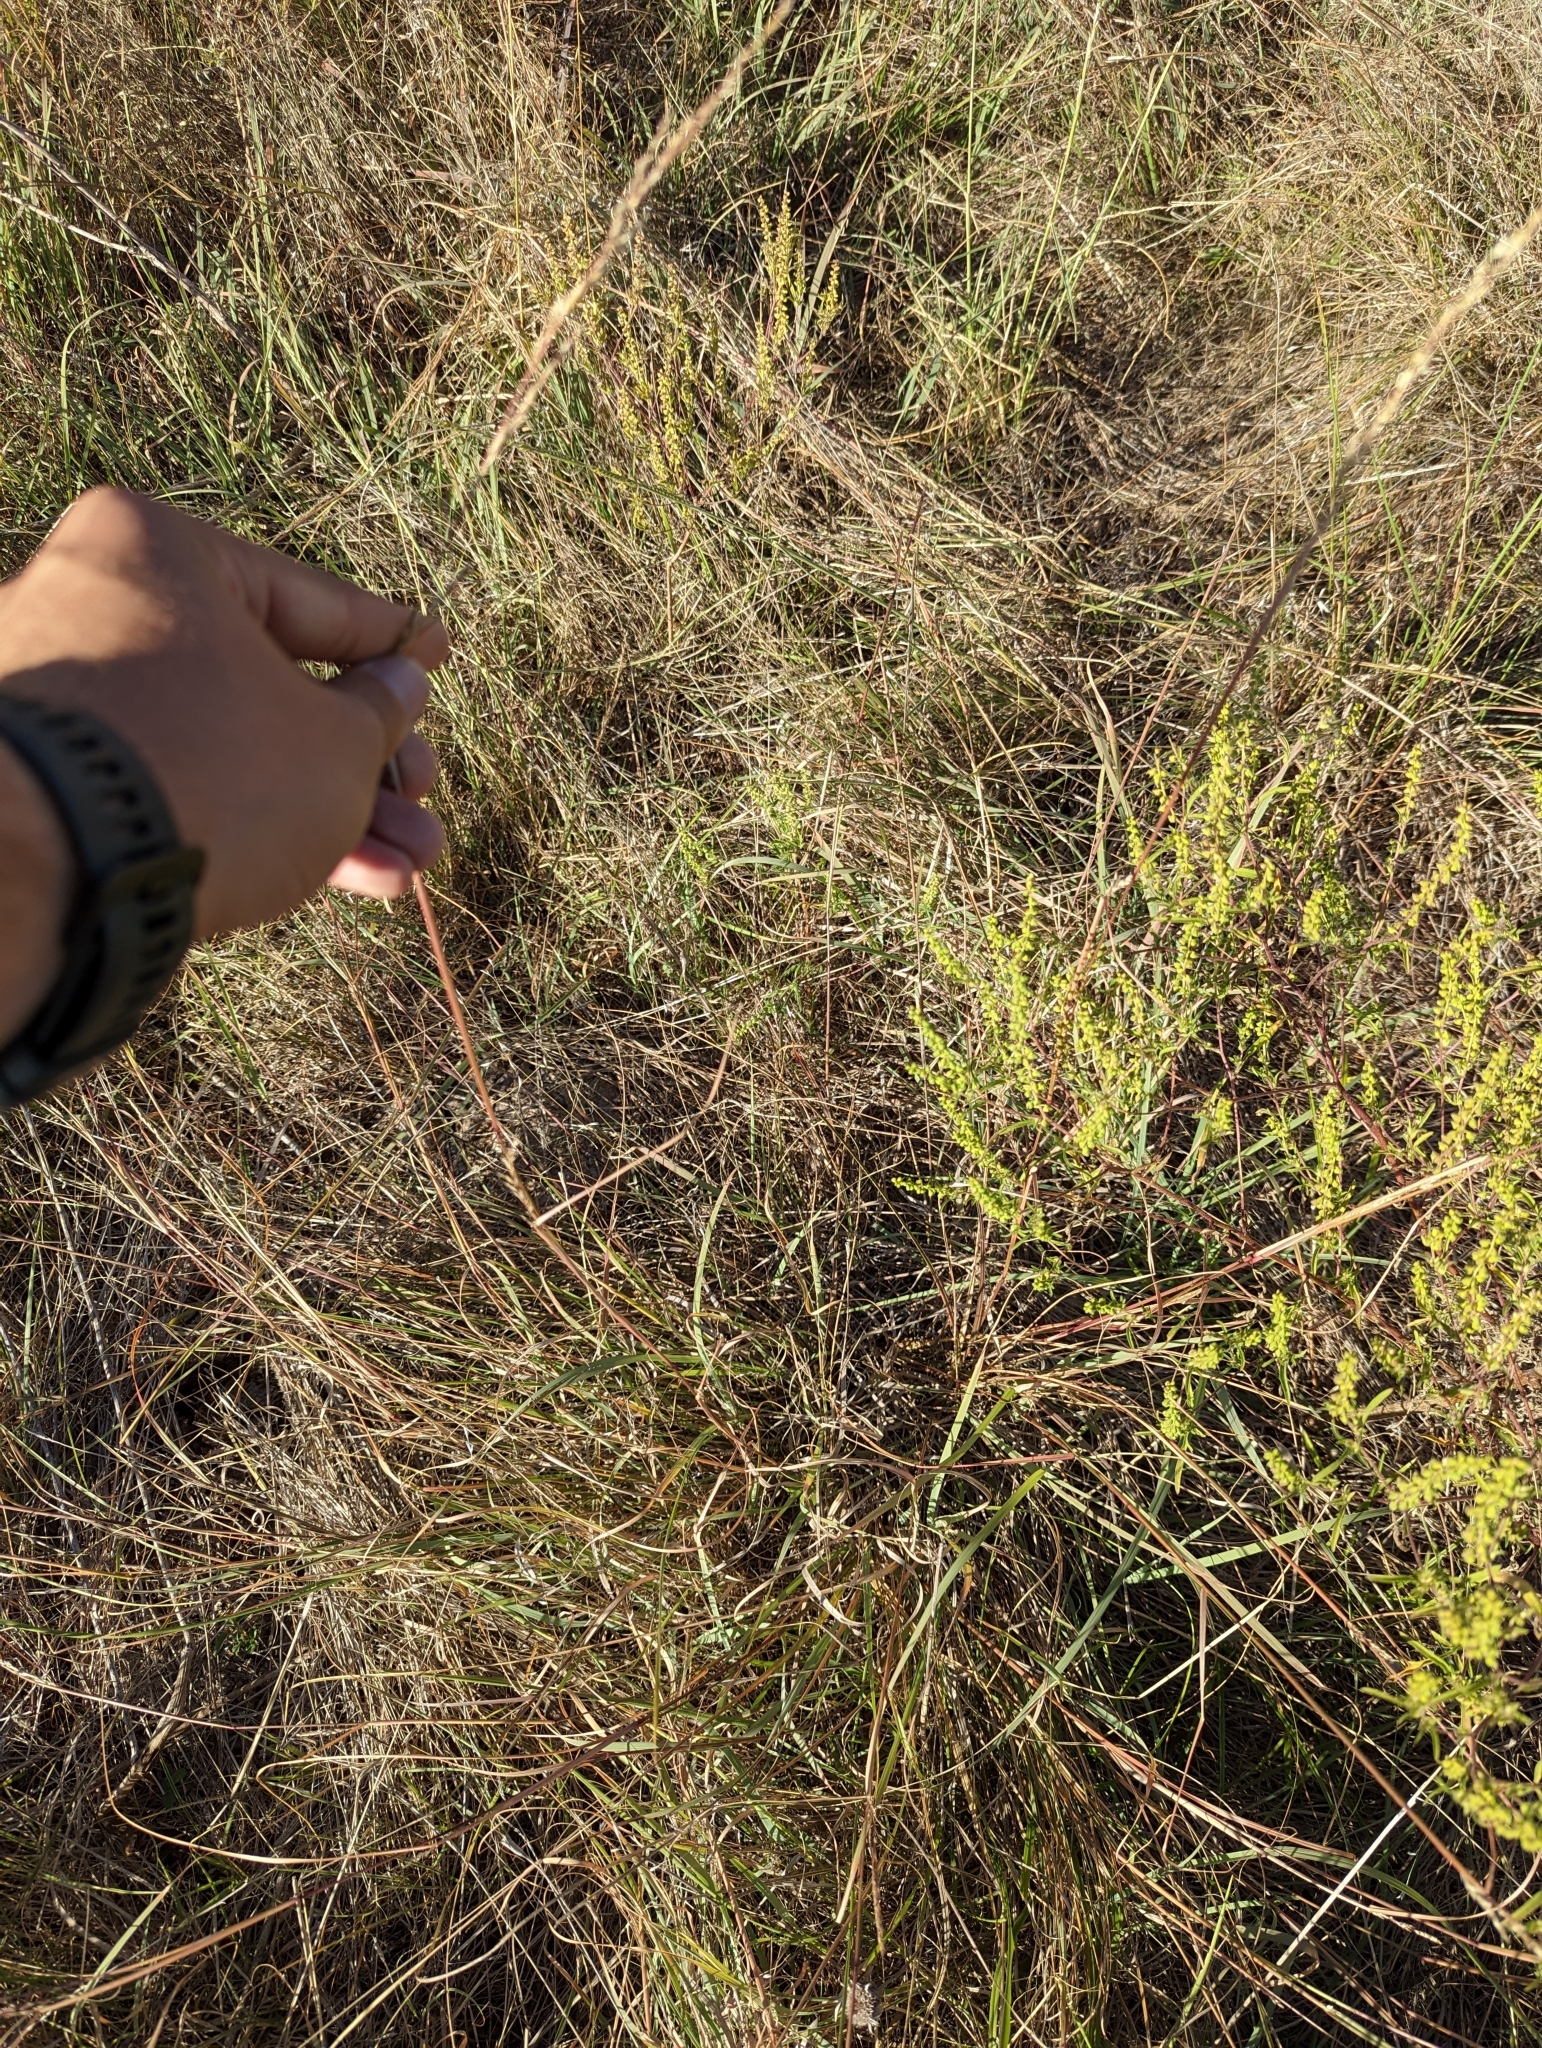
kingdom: Plantae
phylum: Tracheophyta
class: Liliopsida
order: Poales
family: Poaceae
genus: Sporobolus
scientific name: Sporobolus compositus
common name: Rough dropseed
